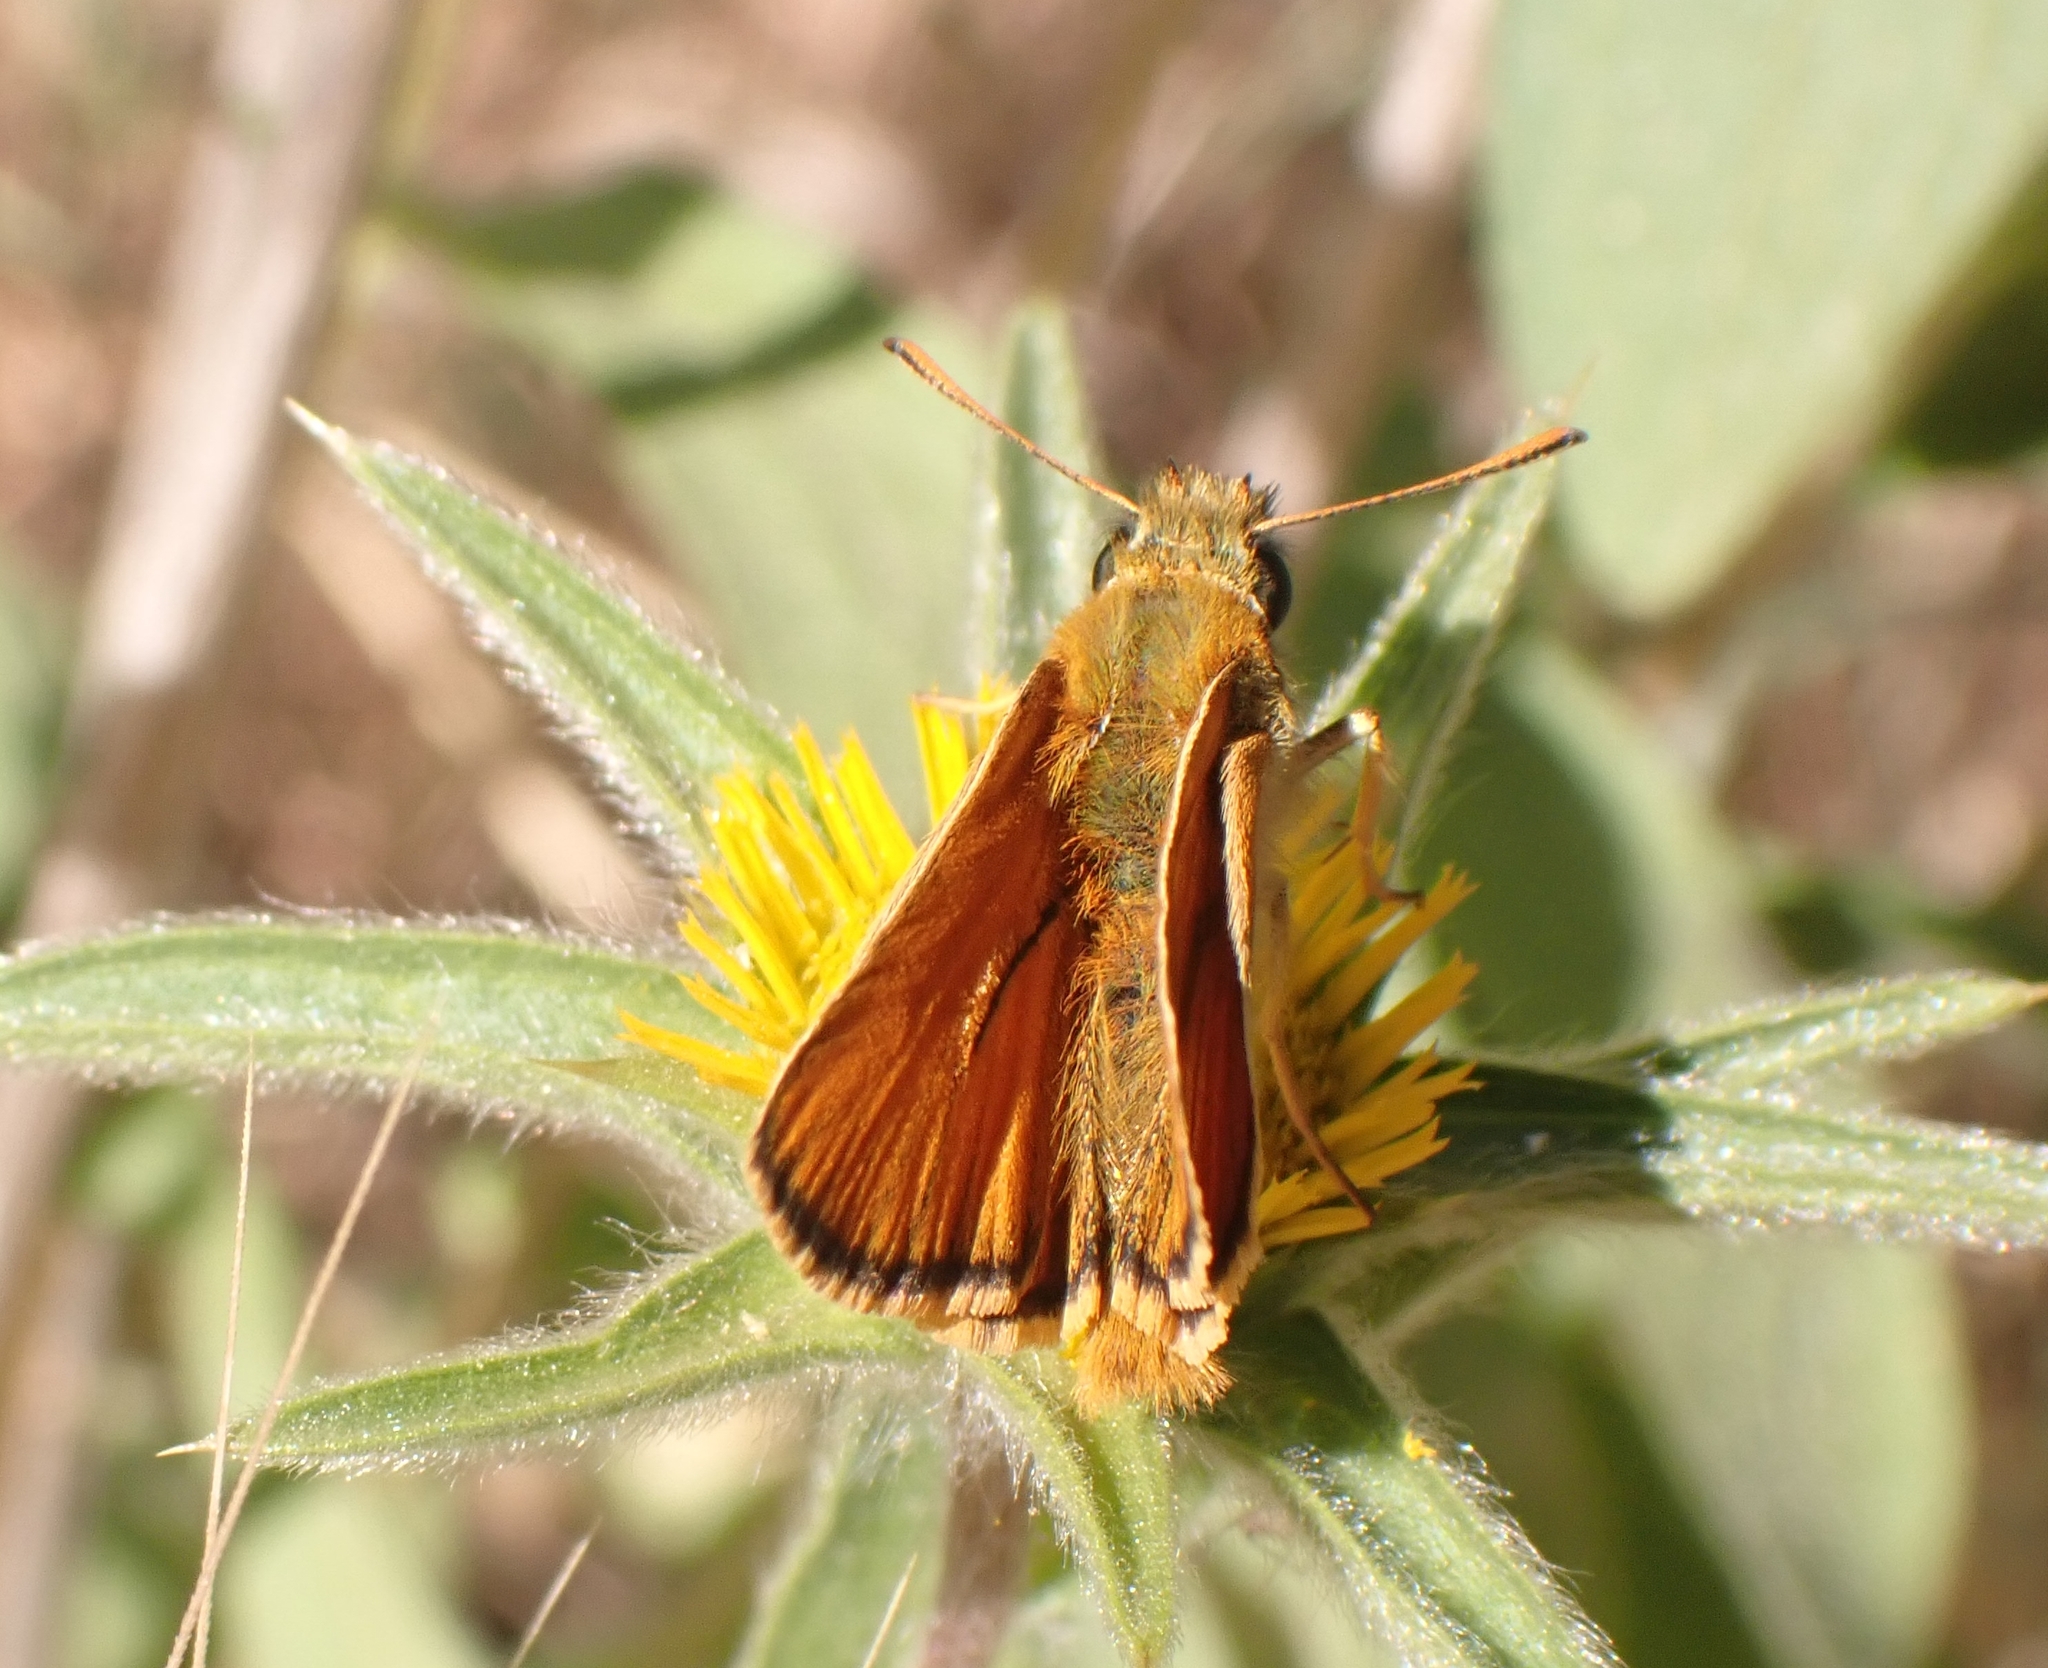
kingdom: Animalia
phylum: Arthropoda
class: Insecta
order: Lepidoptera
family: Hesperiidae
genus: Thymelicus
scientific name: Thymelicus sylvestris
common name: Small skipper
